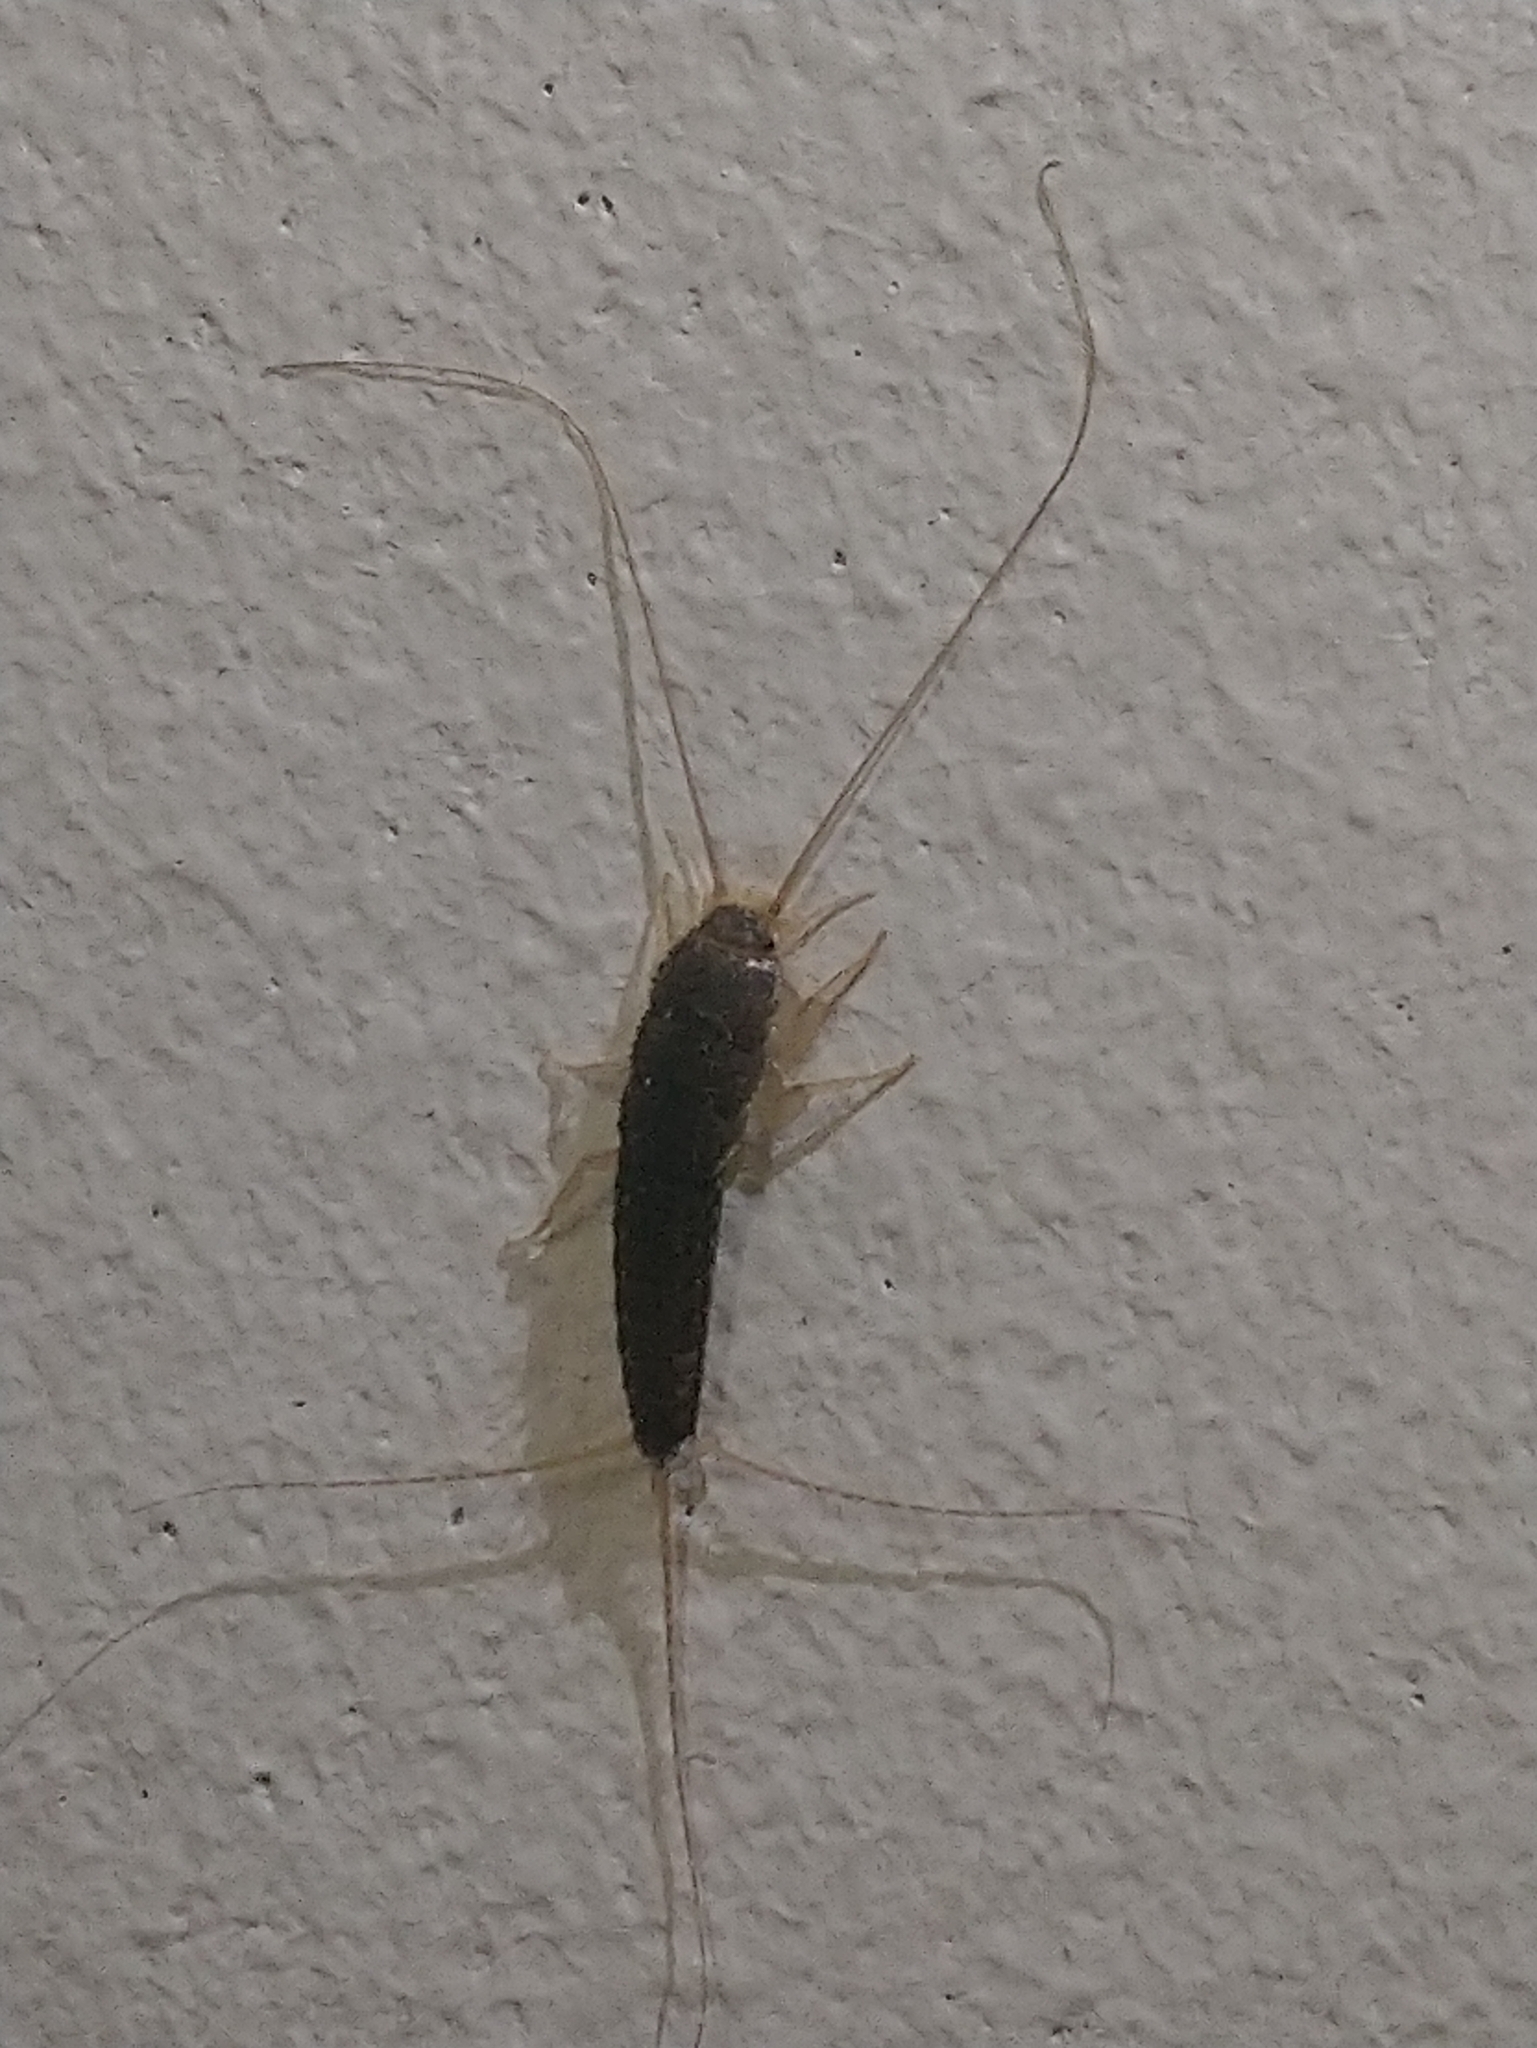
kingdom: Animalia
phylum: Arthropoda
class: Insecta
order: Zygentoma
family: Lepismatidae
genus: Ctenolepisma
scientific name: Ctenolepisma longicaudatum
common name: Silverfish
